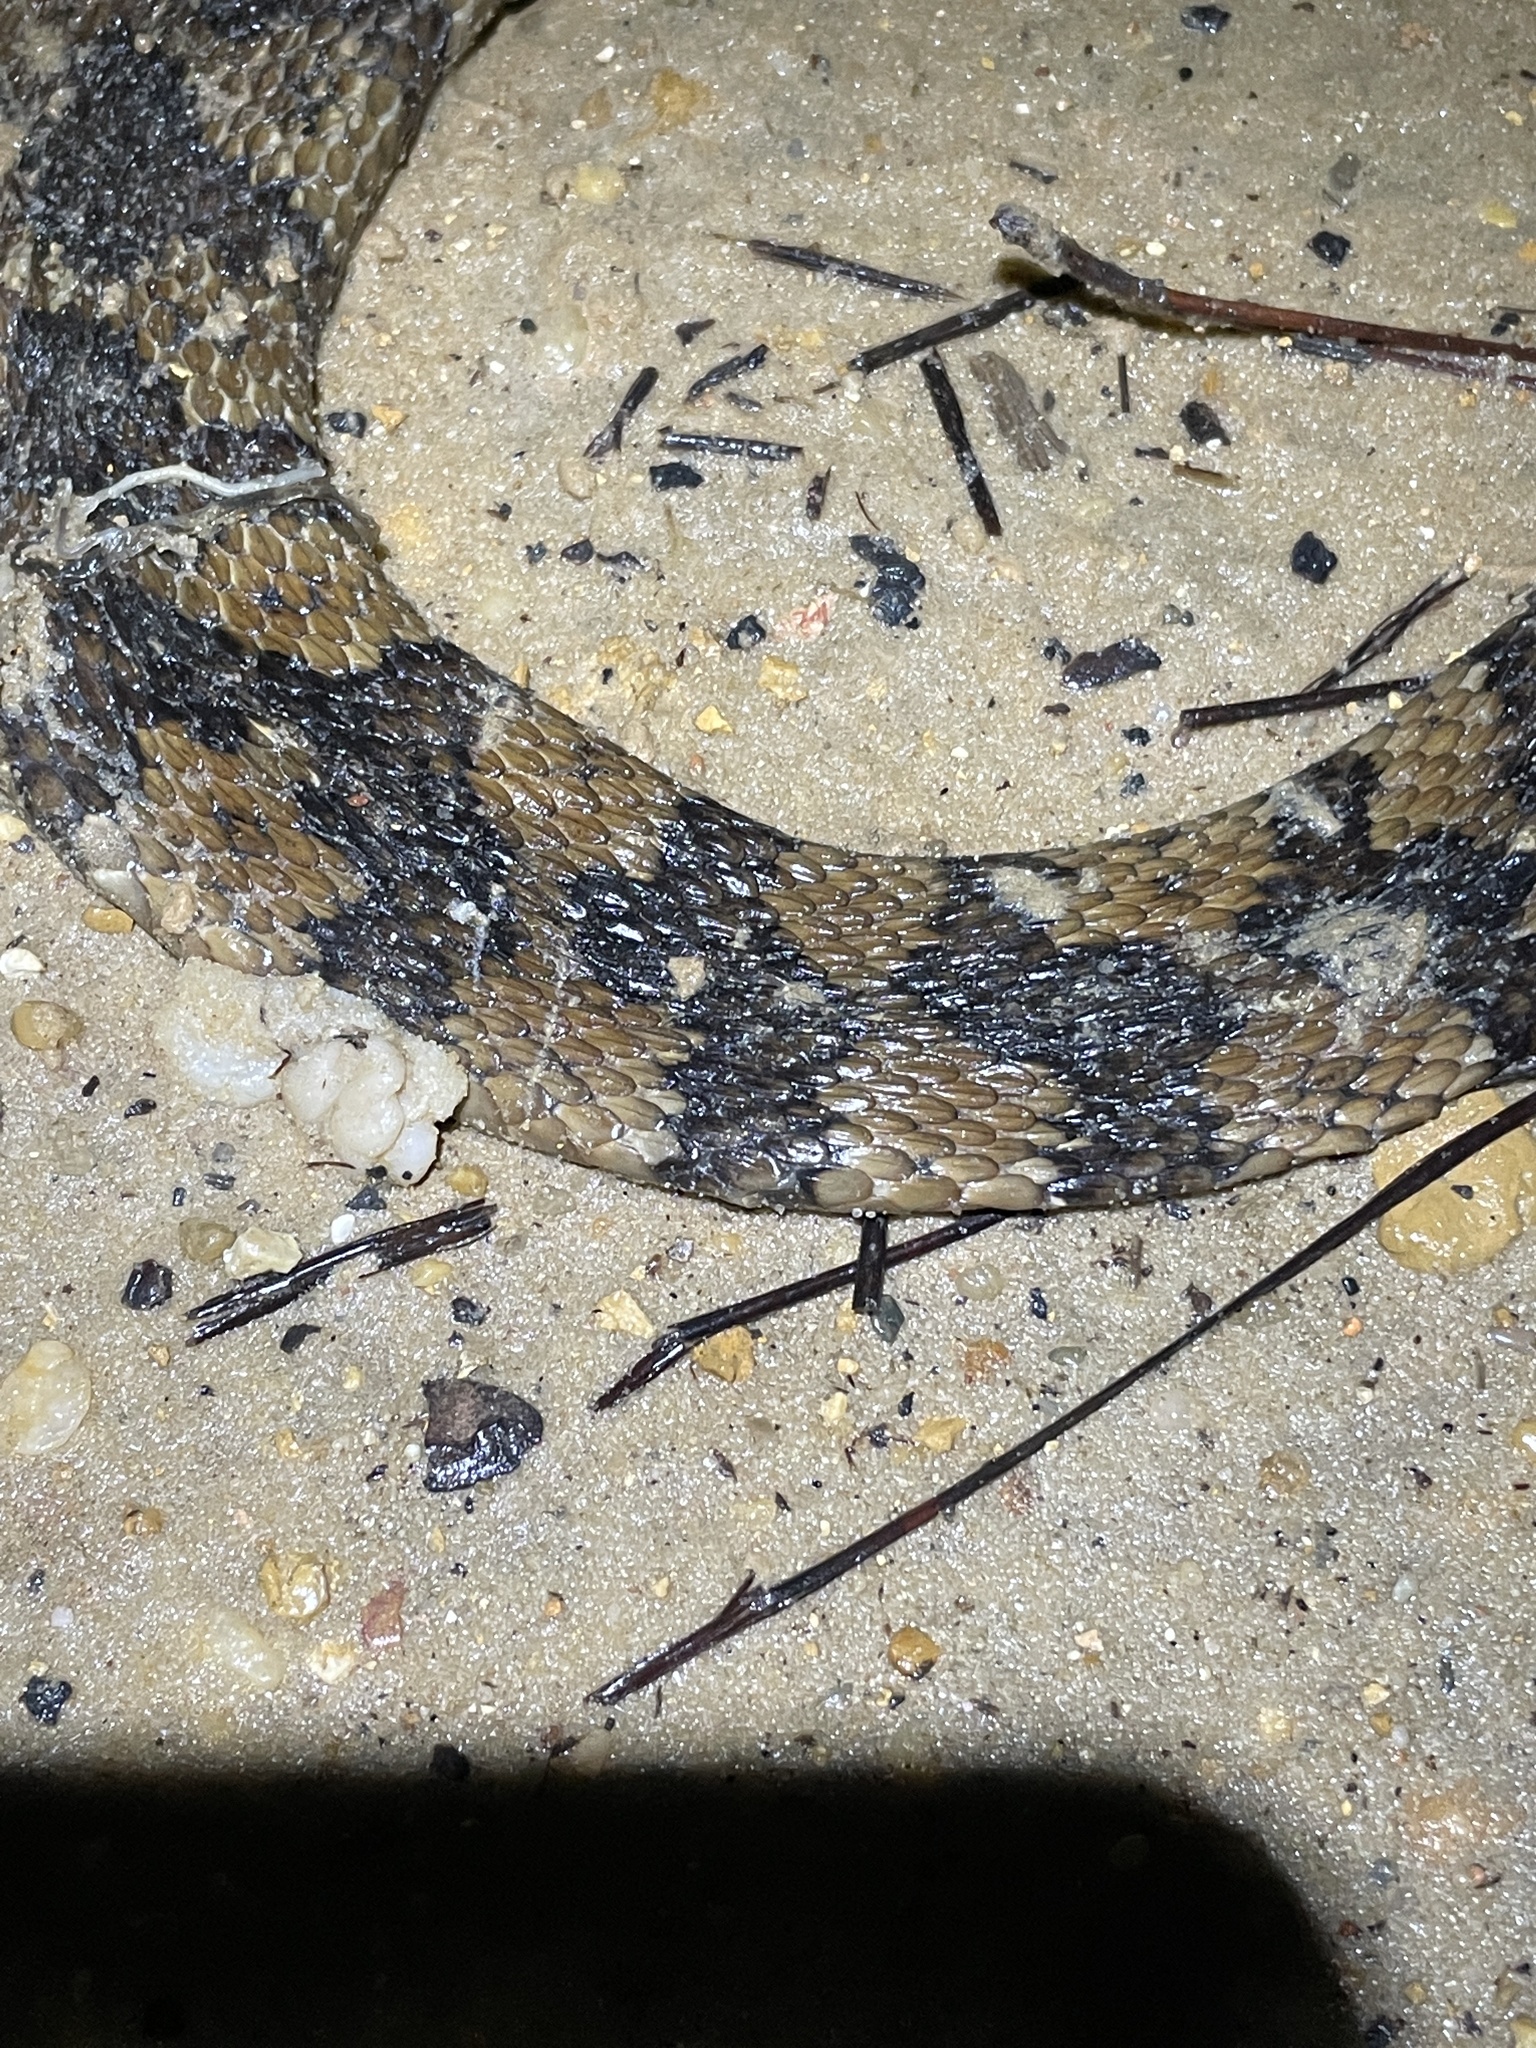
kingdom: Animalia
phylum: Chordata
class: Squamata
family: Colubridae
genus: Nerodia
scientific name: Nerodia fasciata
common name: Southern water snake
